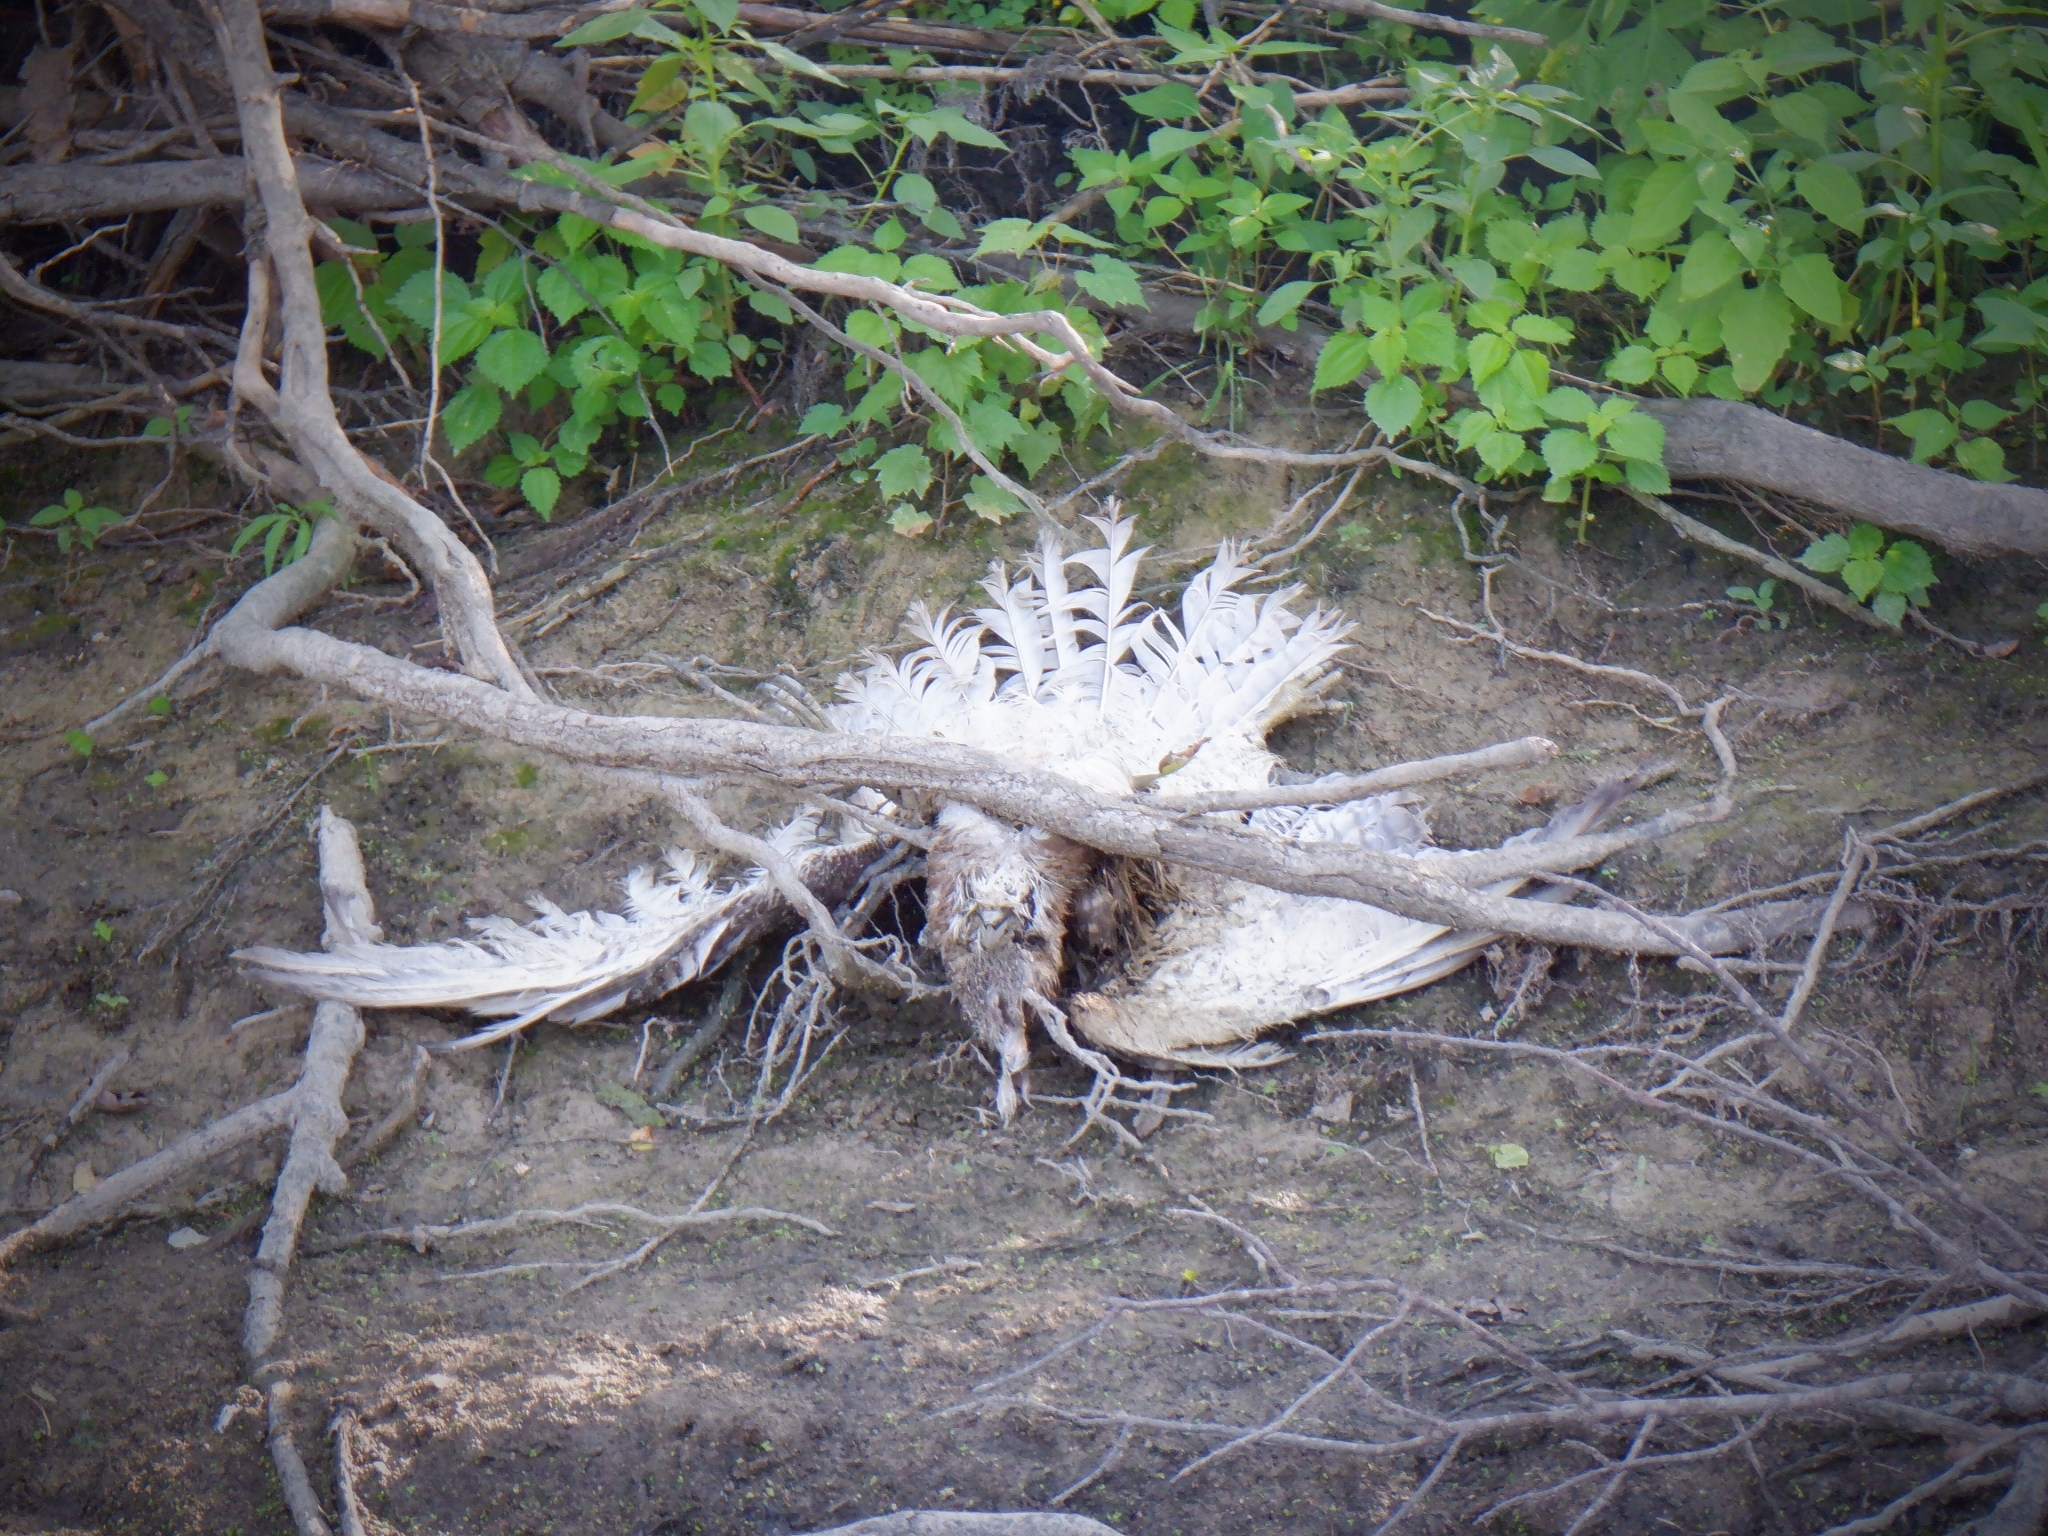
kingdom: Animalia
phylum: Chordata
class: Aves
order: Accipitriformes
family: Accipitridae
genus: Buteo
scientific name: Buteo jamaicensis
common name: Red-tailed hawk
